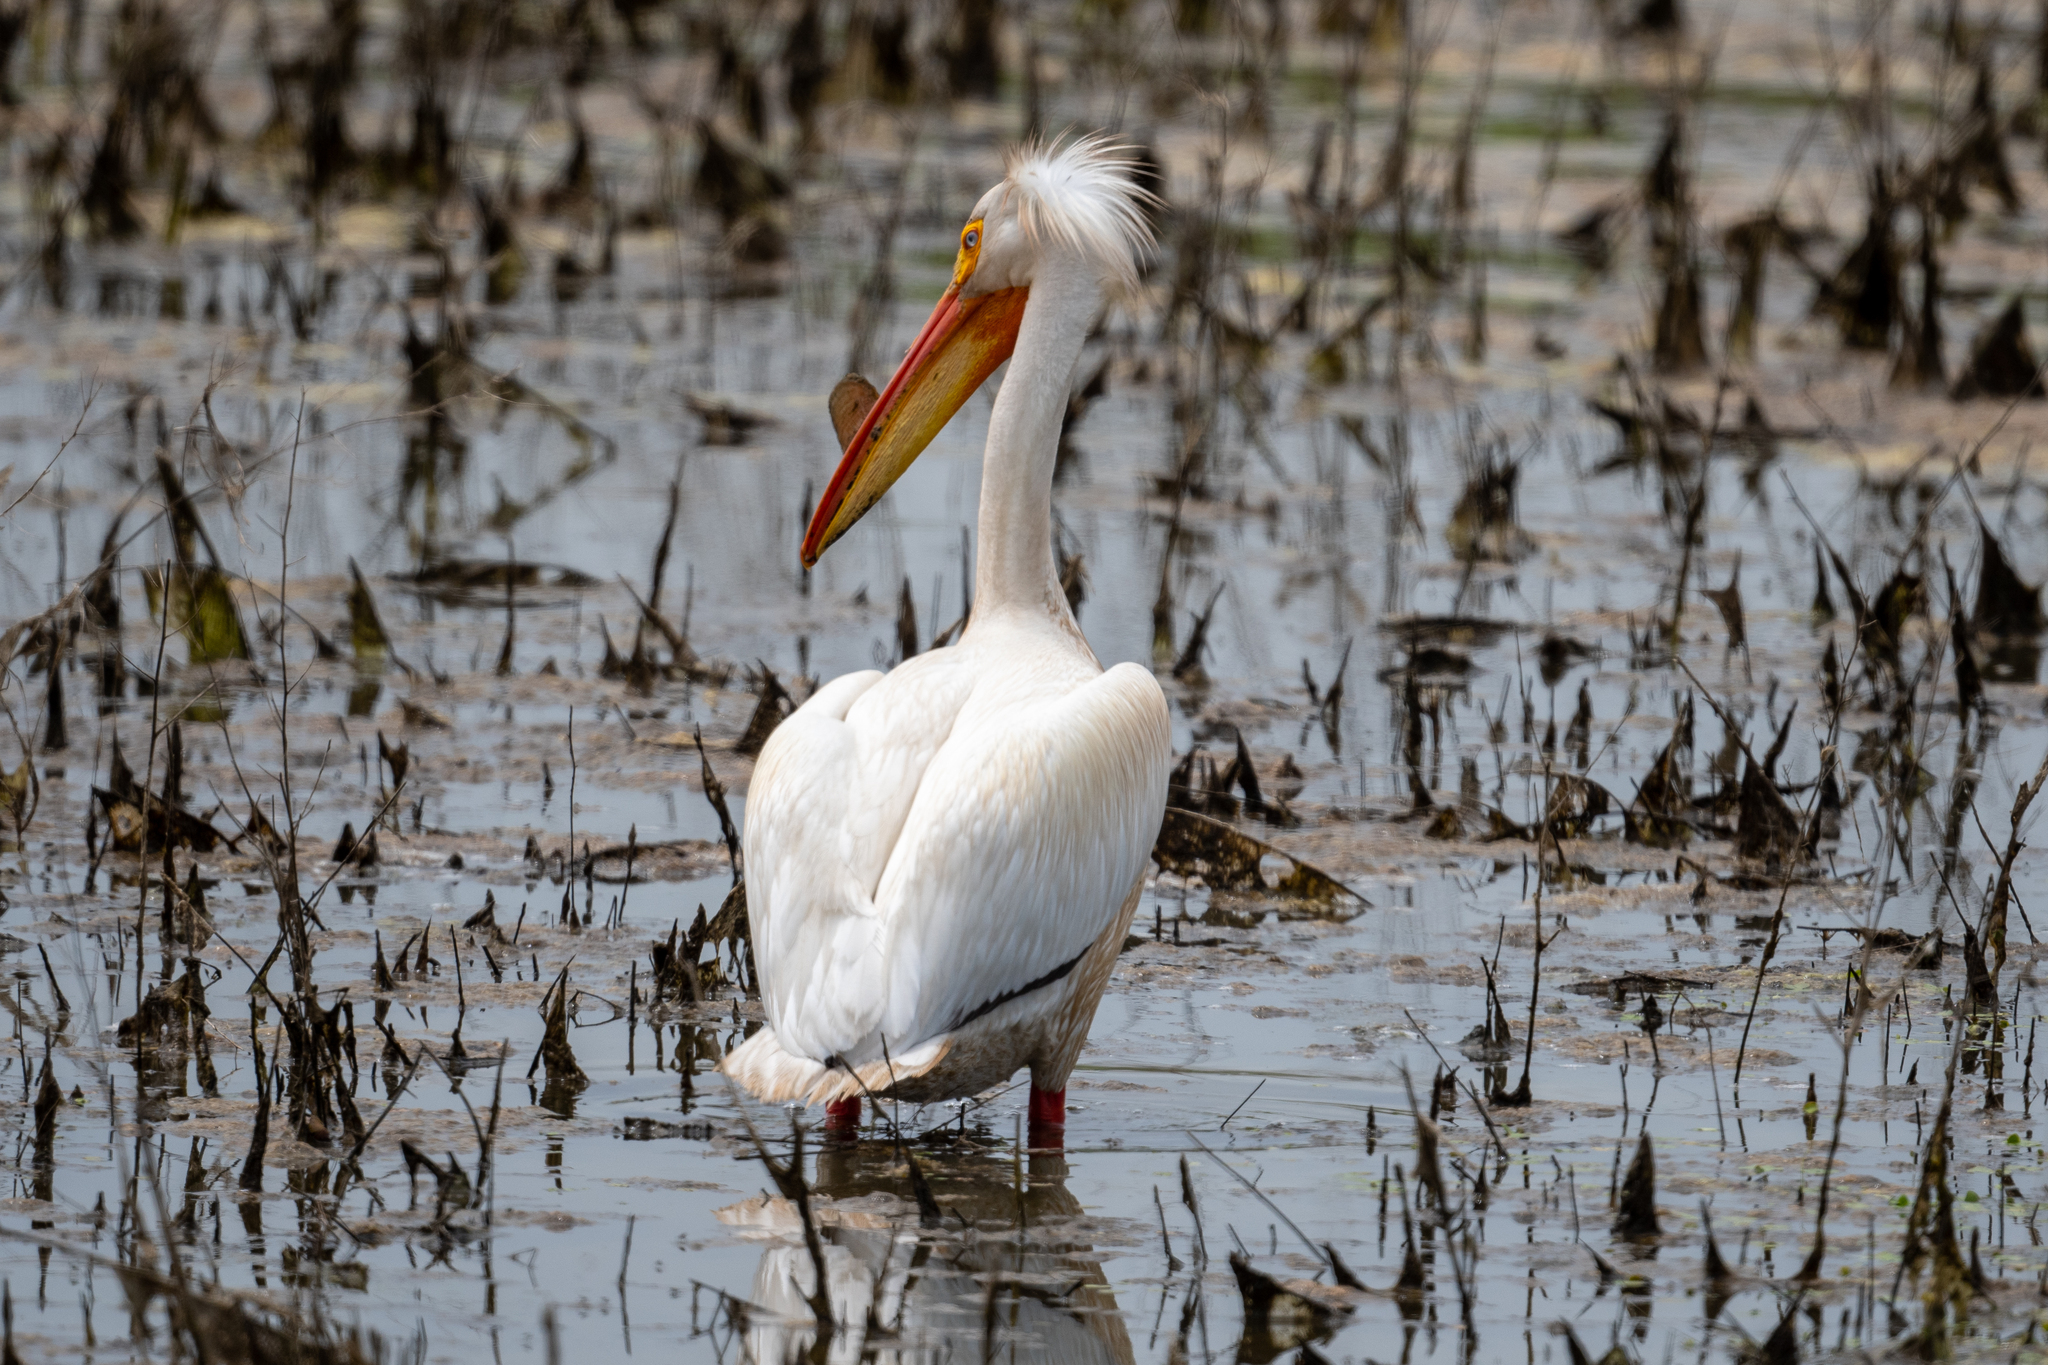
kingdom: Animalia
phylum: Chordata
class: Aves
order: Pelecaniformes
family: Pelecanidae
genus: Pelecanus
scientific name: Pelecanus erythrorhynchos
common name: American white pelican
